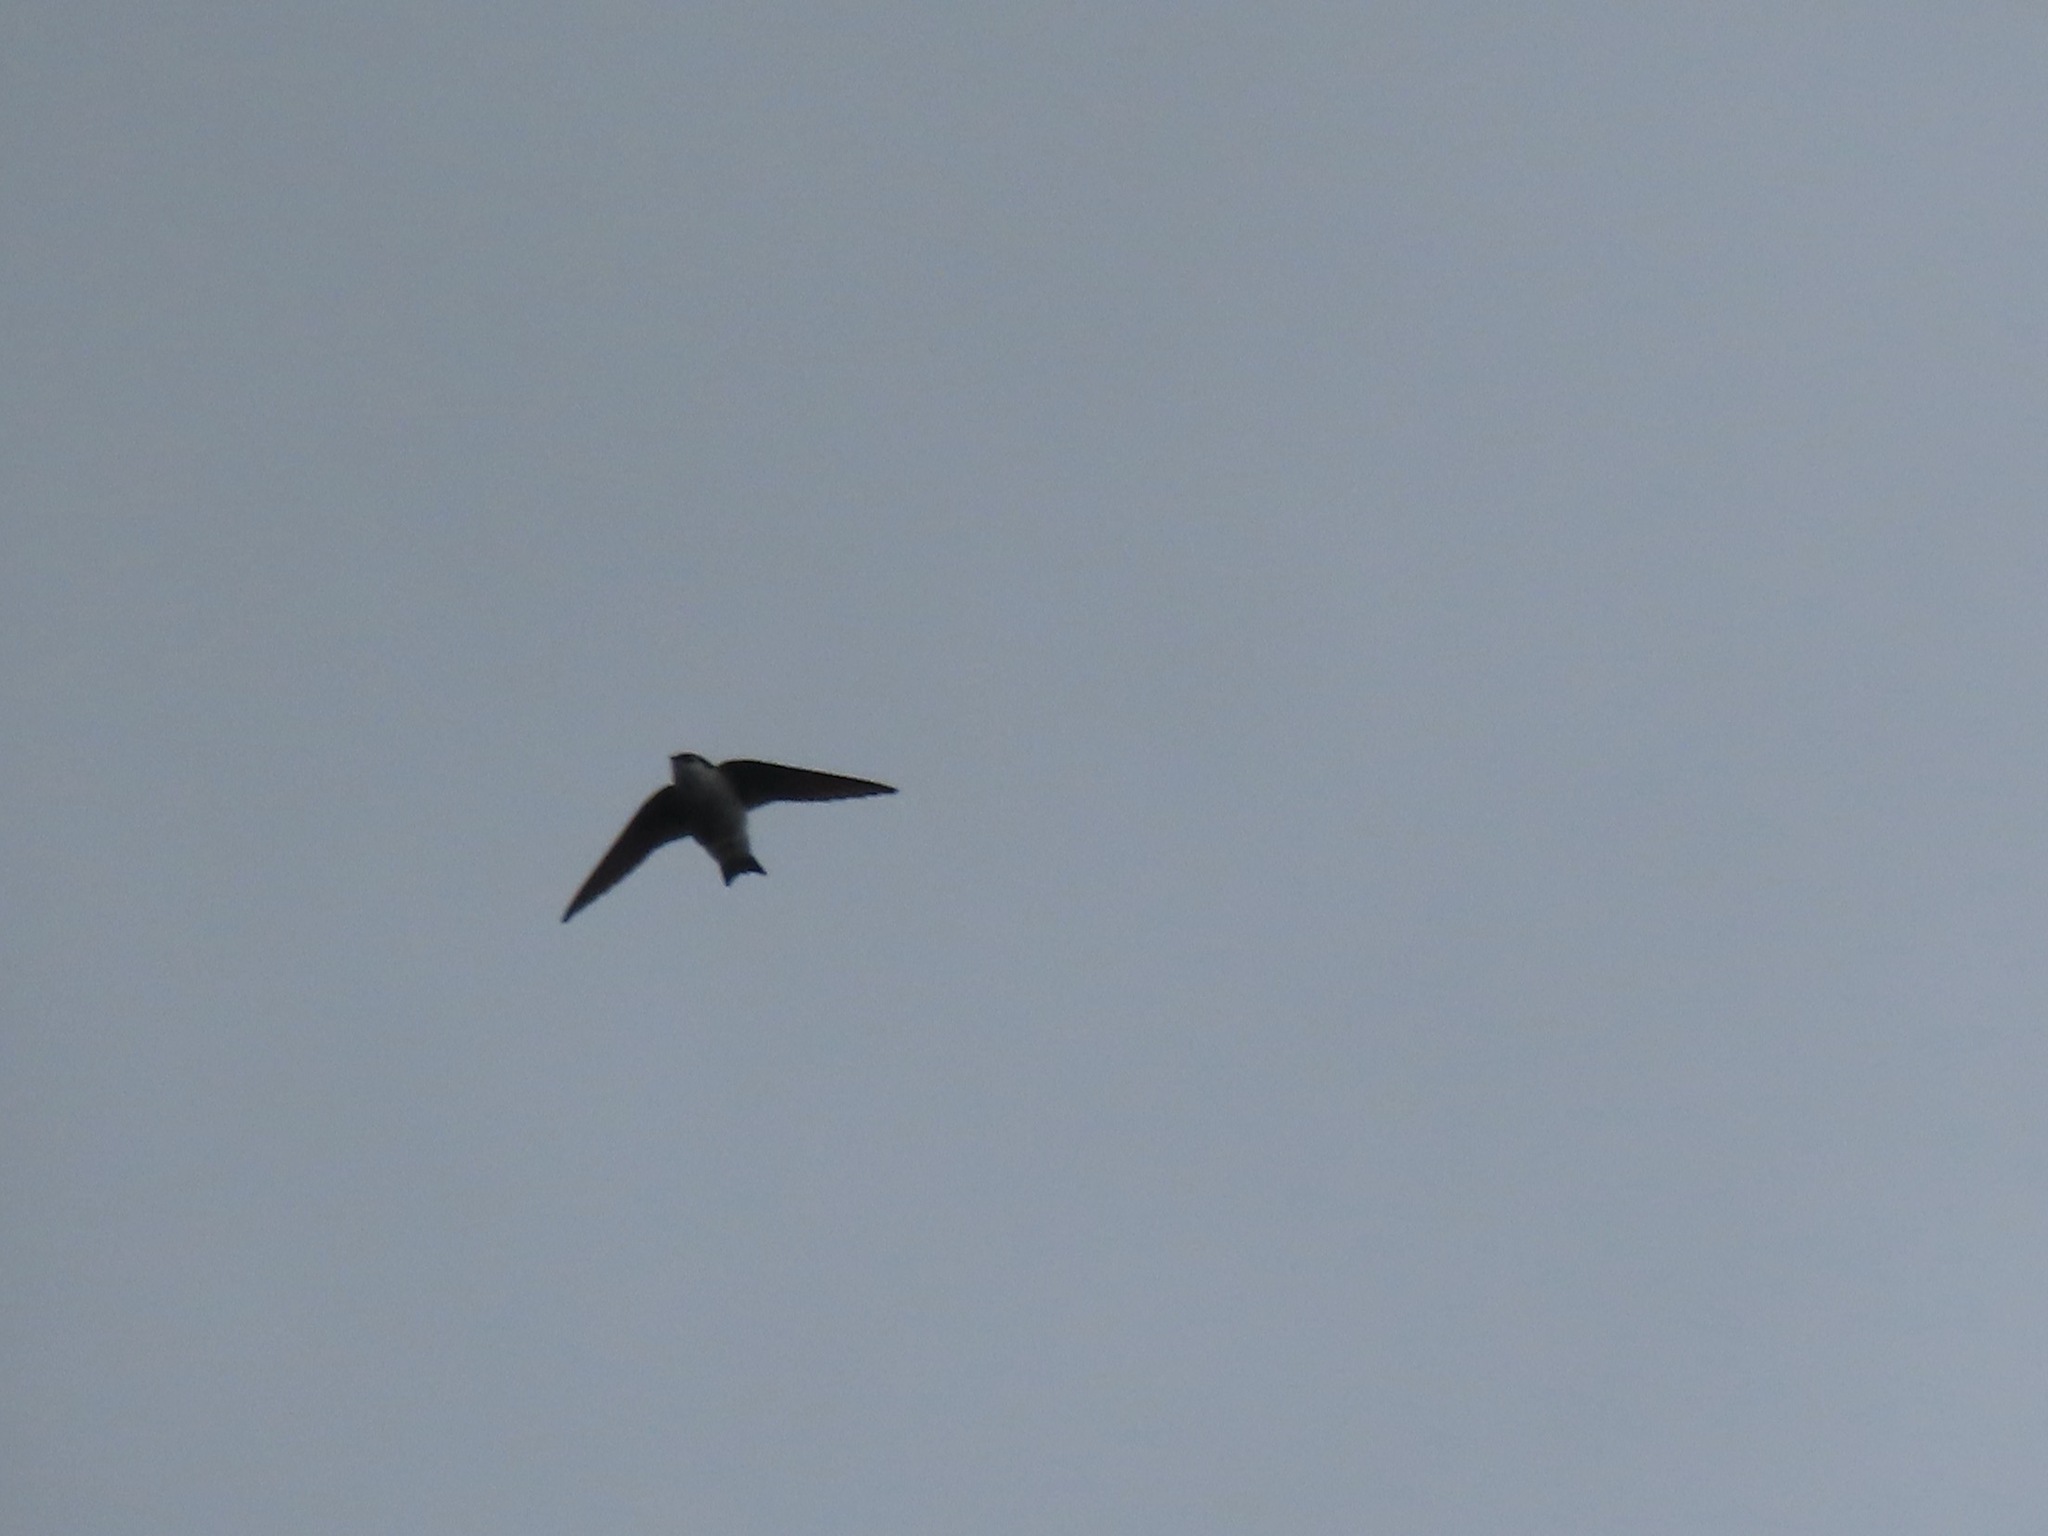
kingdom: Animalia
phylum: Chordata
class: Aves
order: Passeriformes
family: Hirundinidae
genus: Tachycineta
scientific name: Tachycineta thalassina
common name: Violet-green swallow
